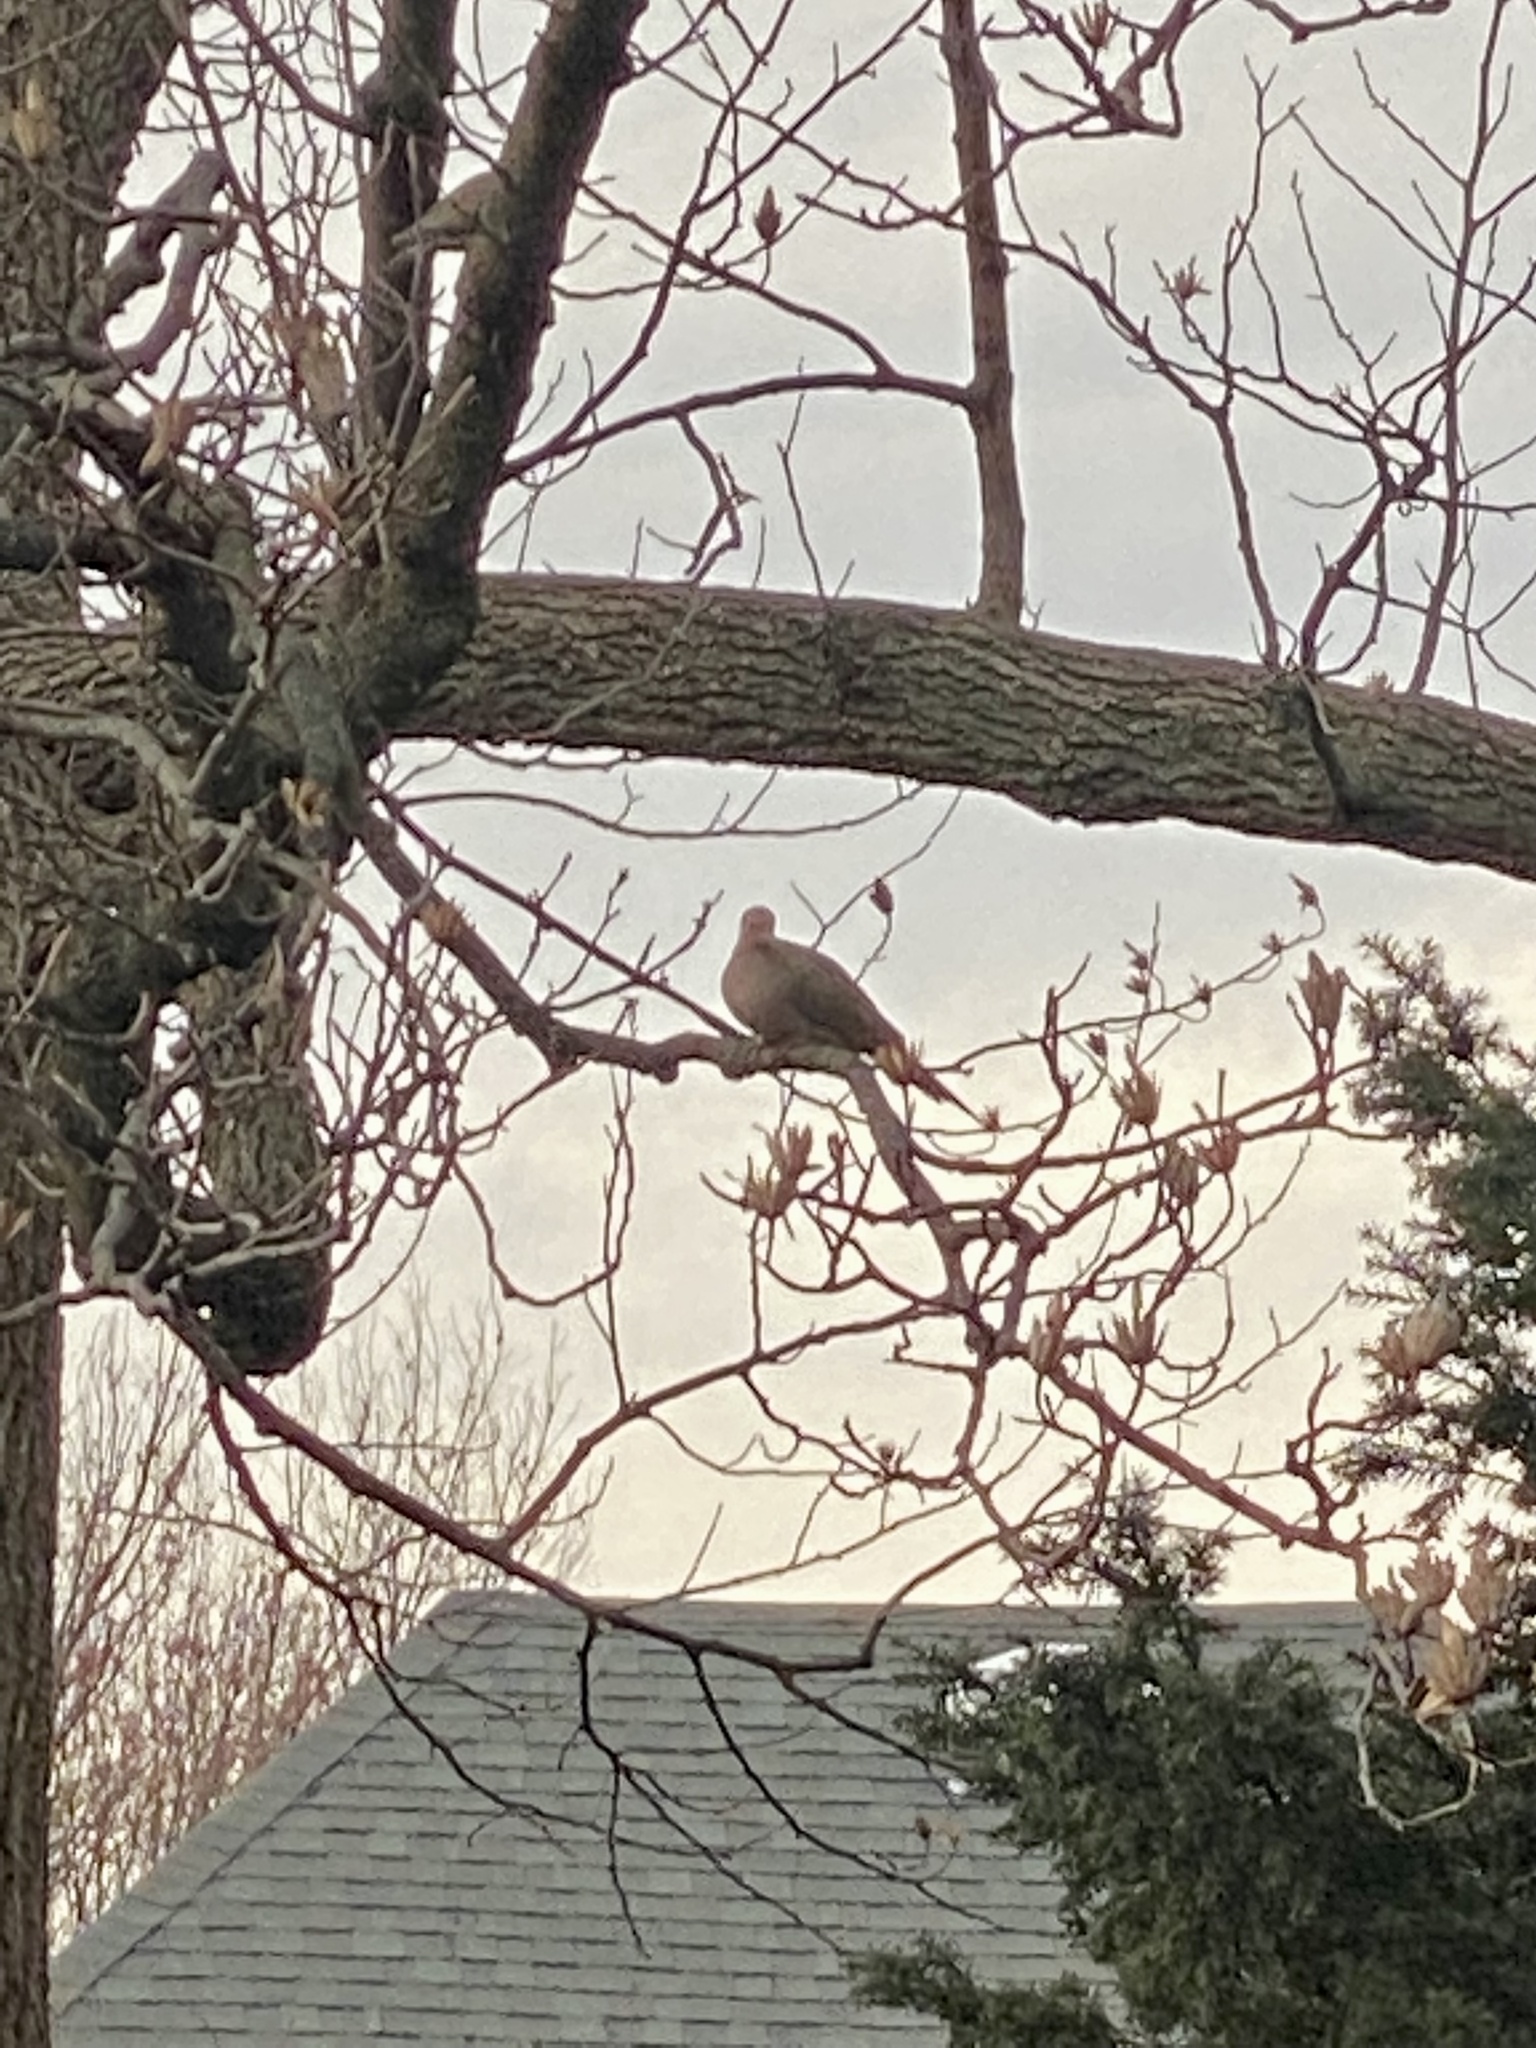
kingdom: Animalia
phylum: Chordata
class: Aves
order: Columbiformes
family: Columbidae
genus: Zenaida
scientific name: Zenaida macroura
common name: Mourning dove
